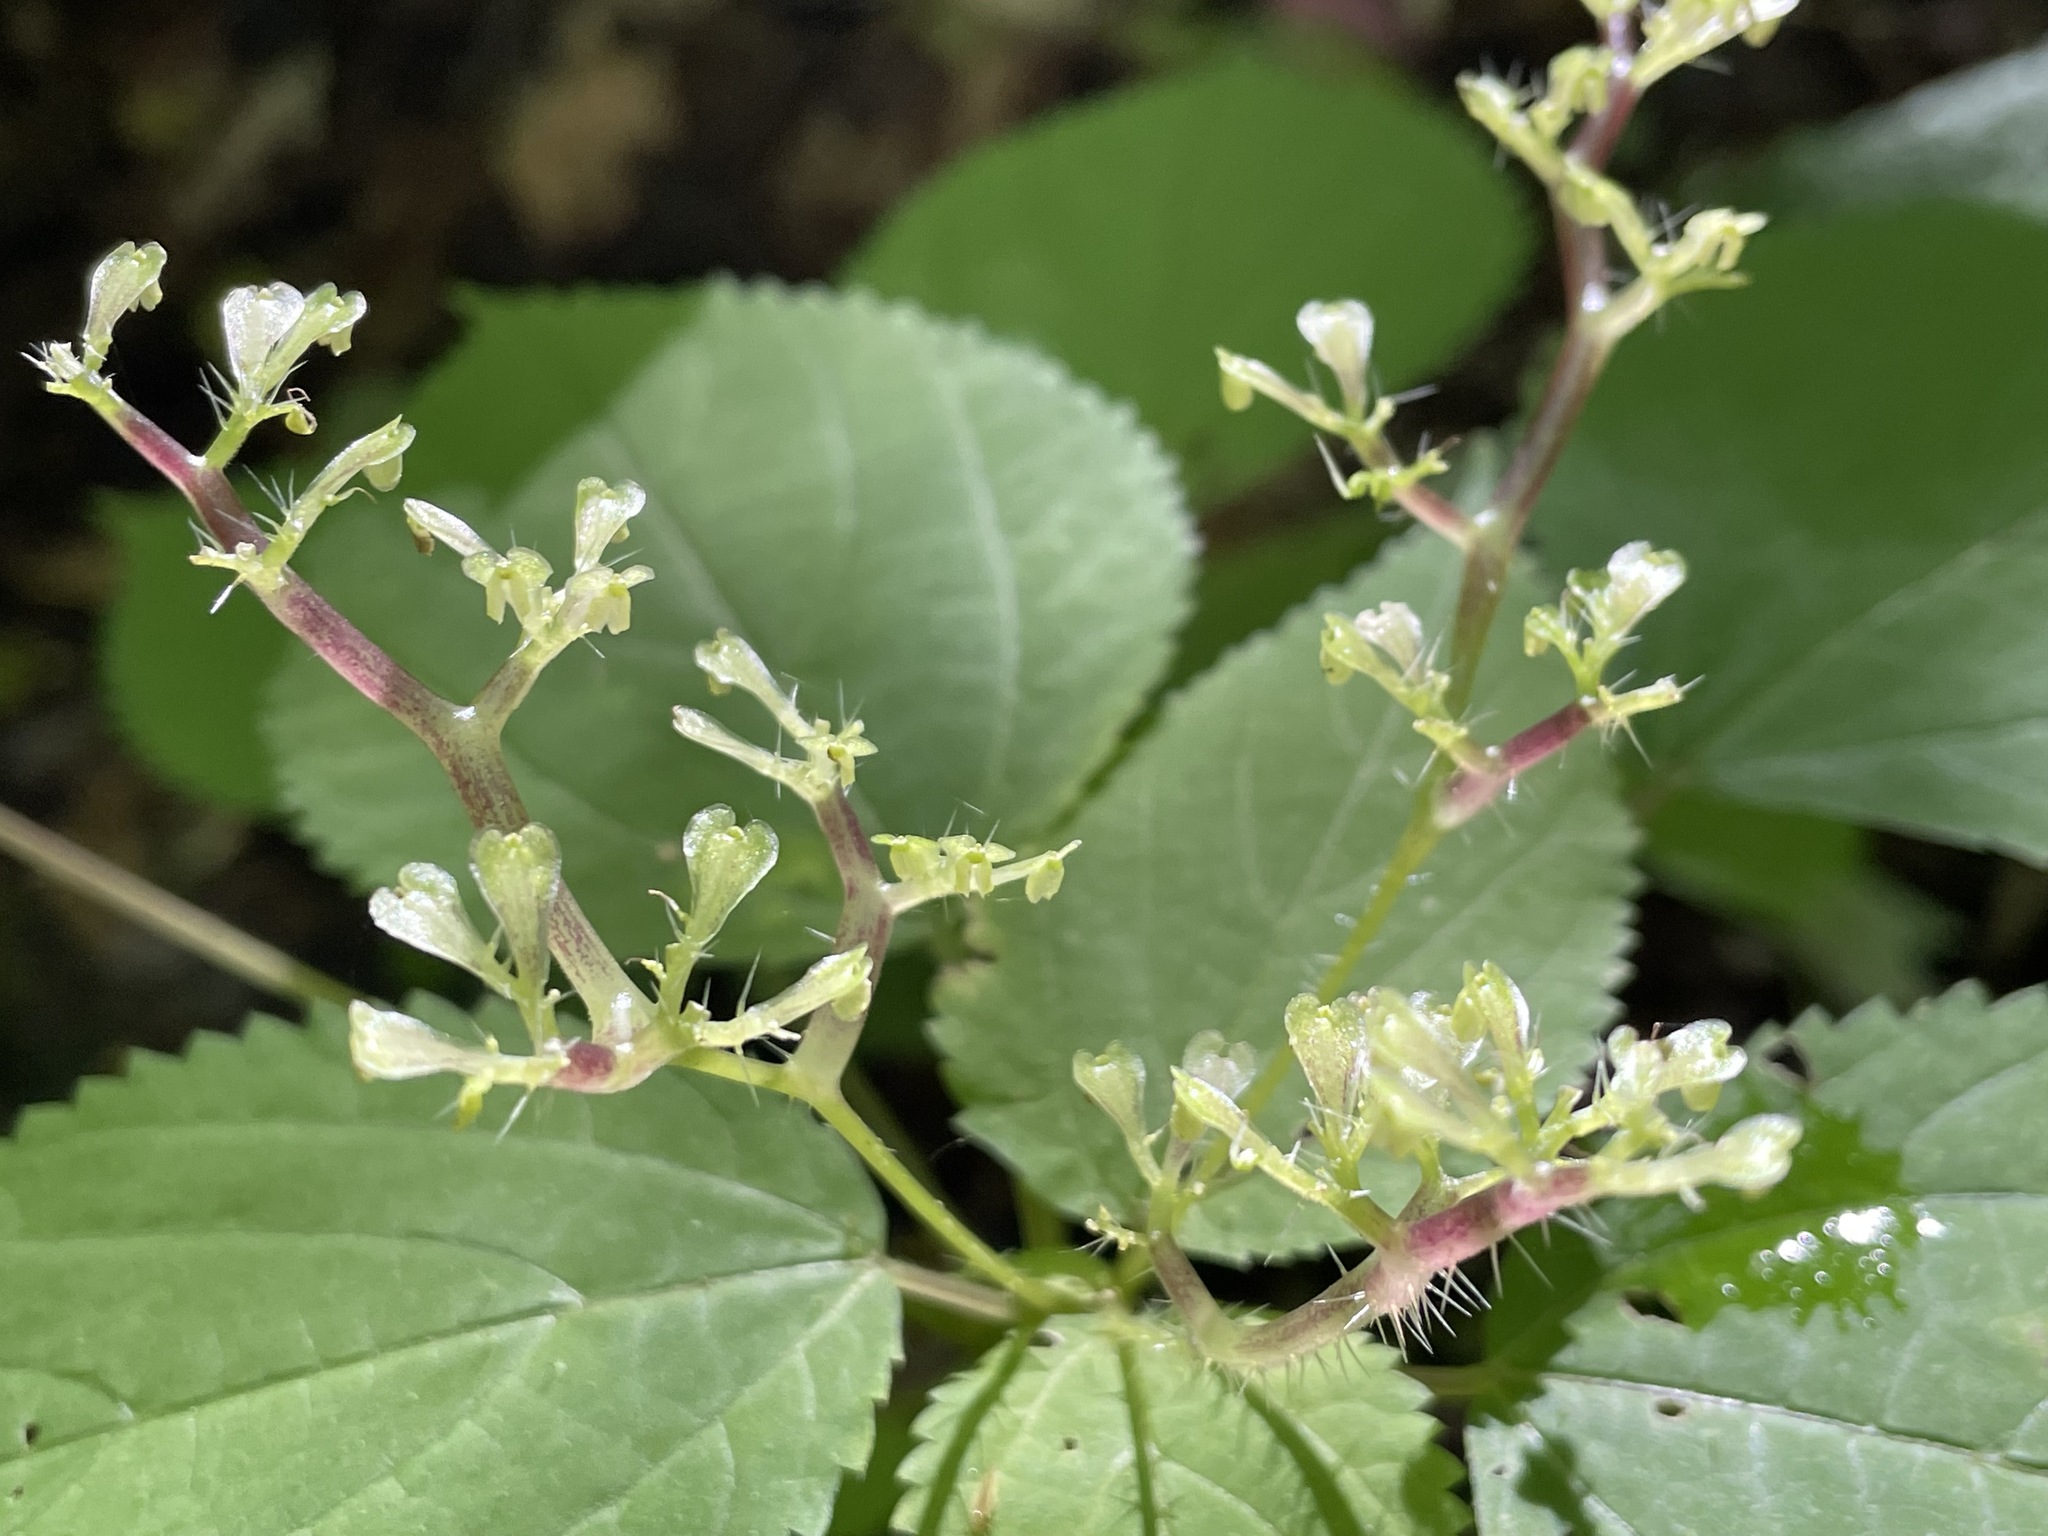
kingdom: Plantae
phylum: Tracheophyta
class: Magnoliopsida
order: Rosales
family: Urticaceae
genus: Laportea
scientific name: Laportea canadensis
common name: Canada nettle
